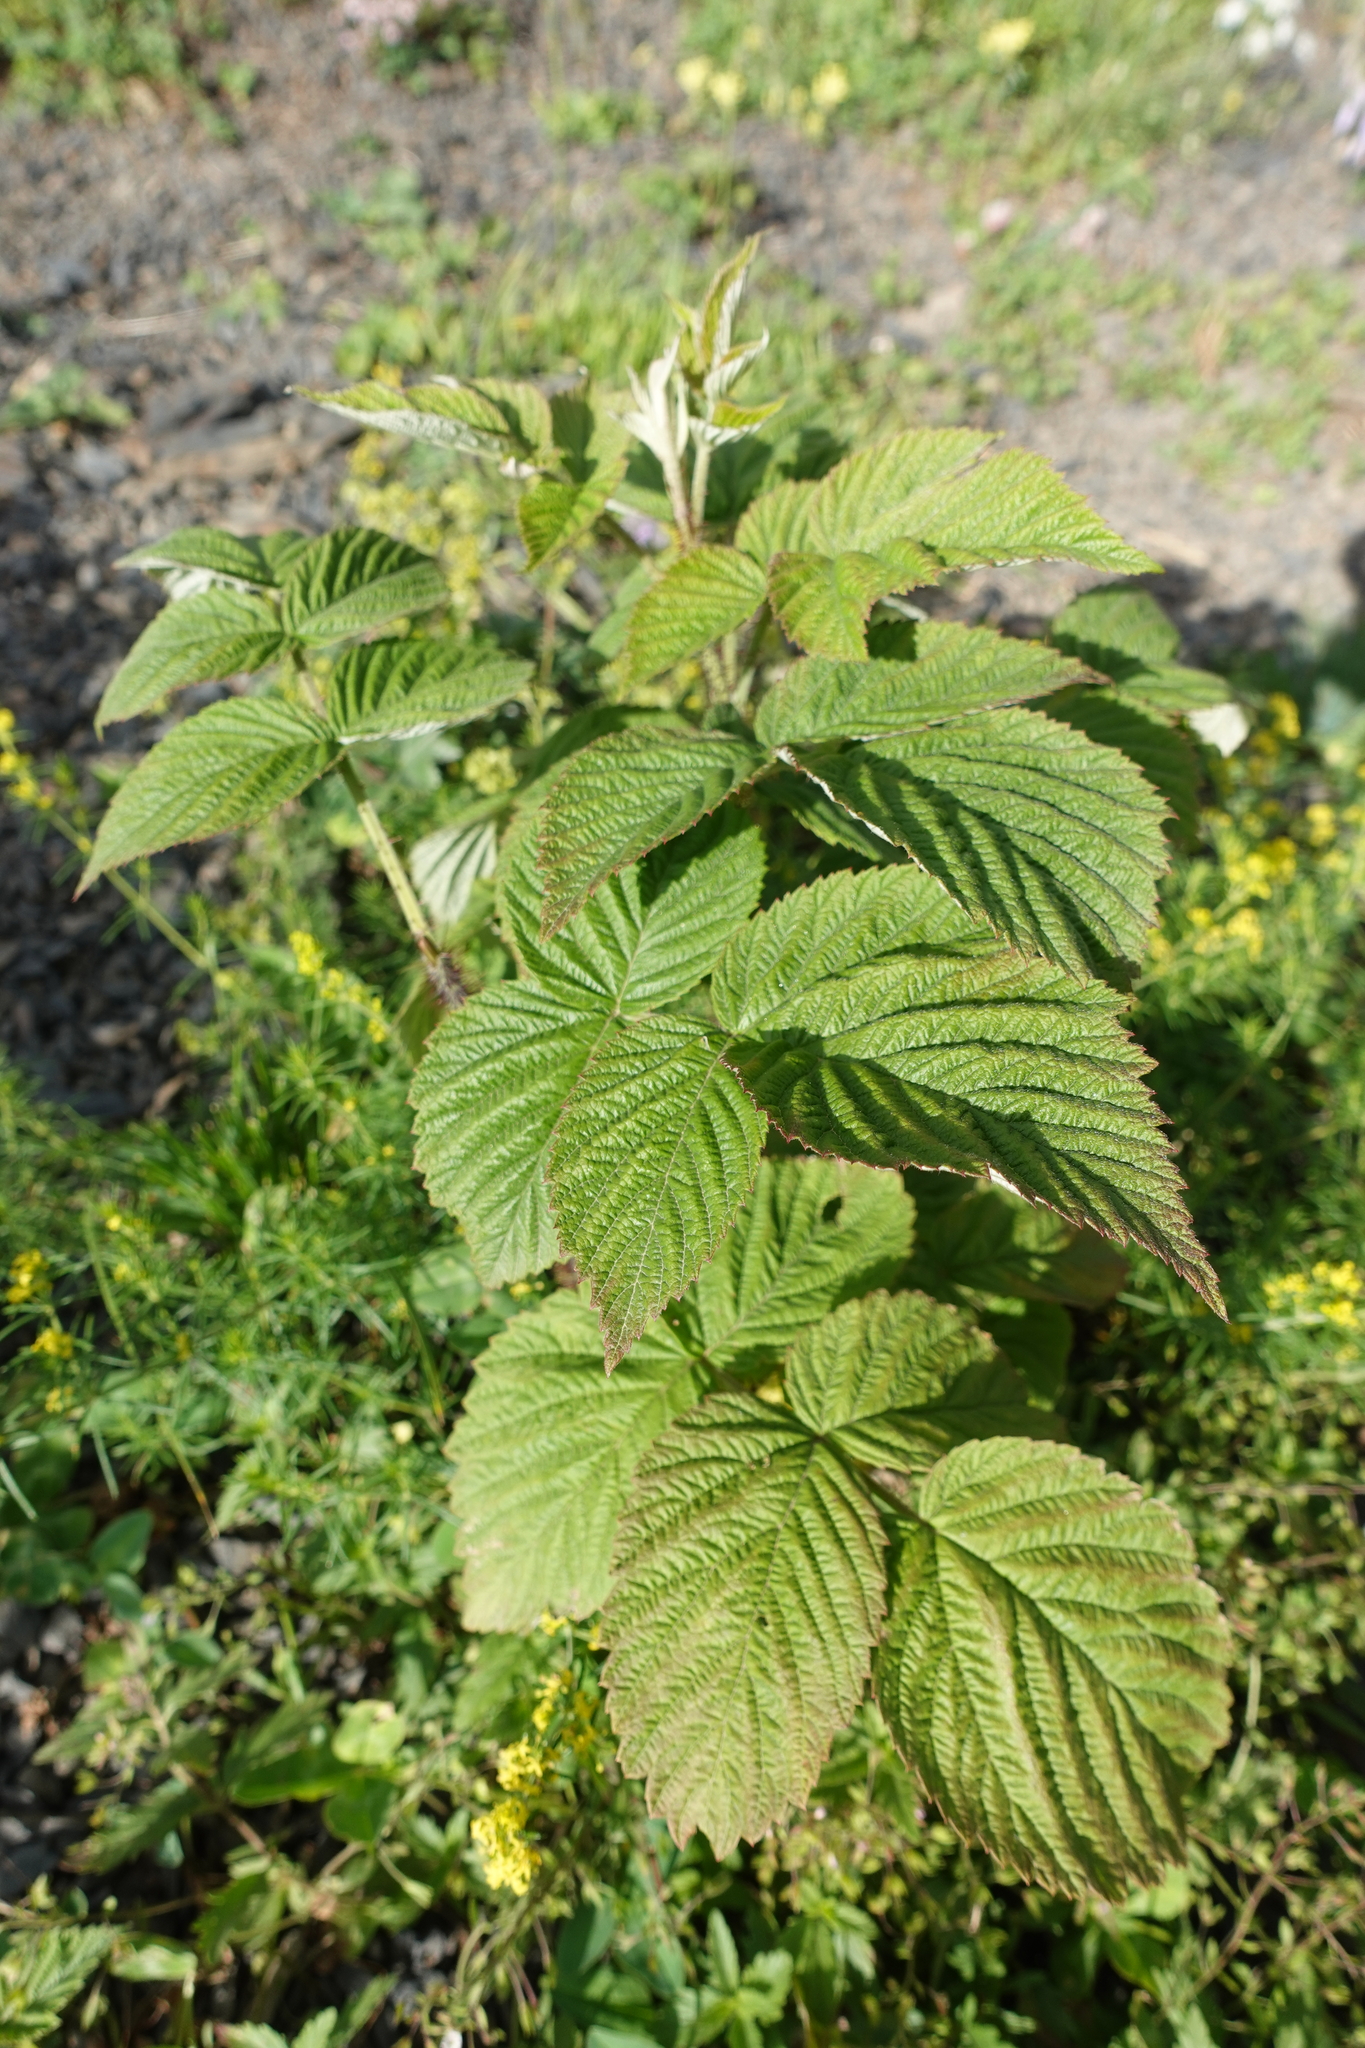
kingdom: Plantae
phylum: Tracheophyta
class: Magnoliopsida
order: Rosales
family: Rosaceae
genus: Rubus
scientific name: Rubus idaeus
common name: Raspberry
